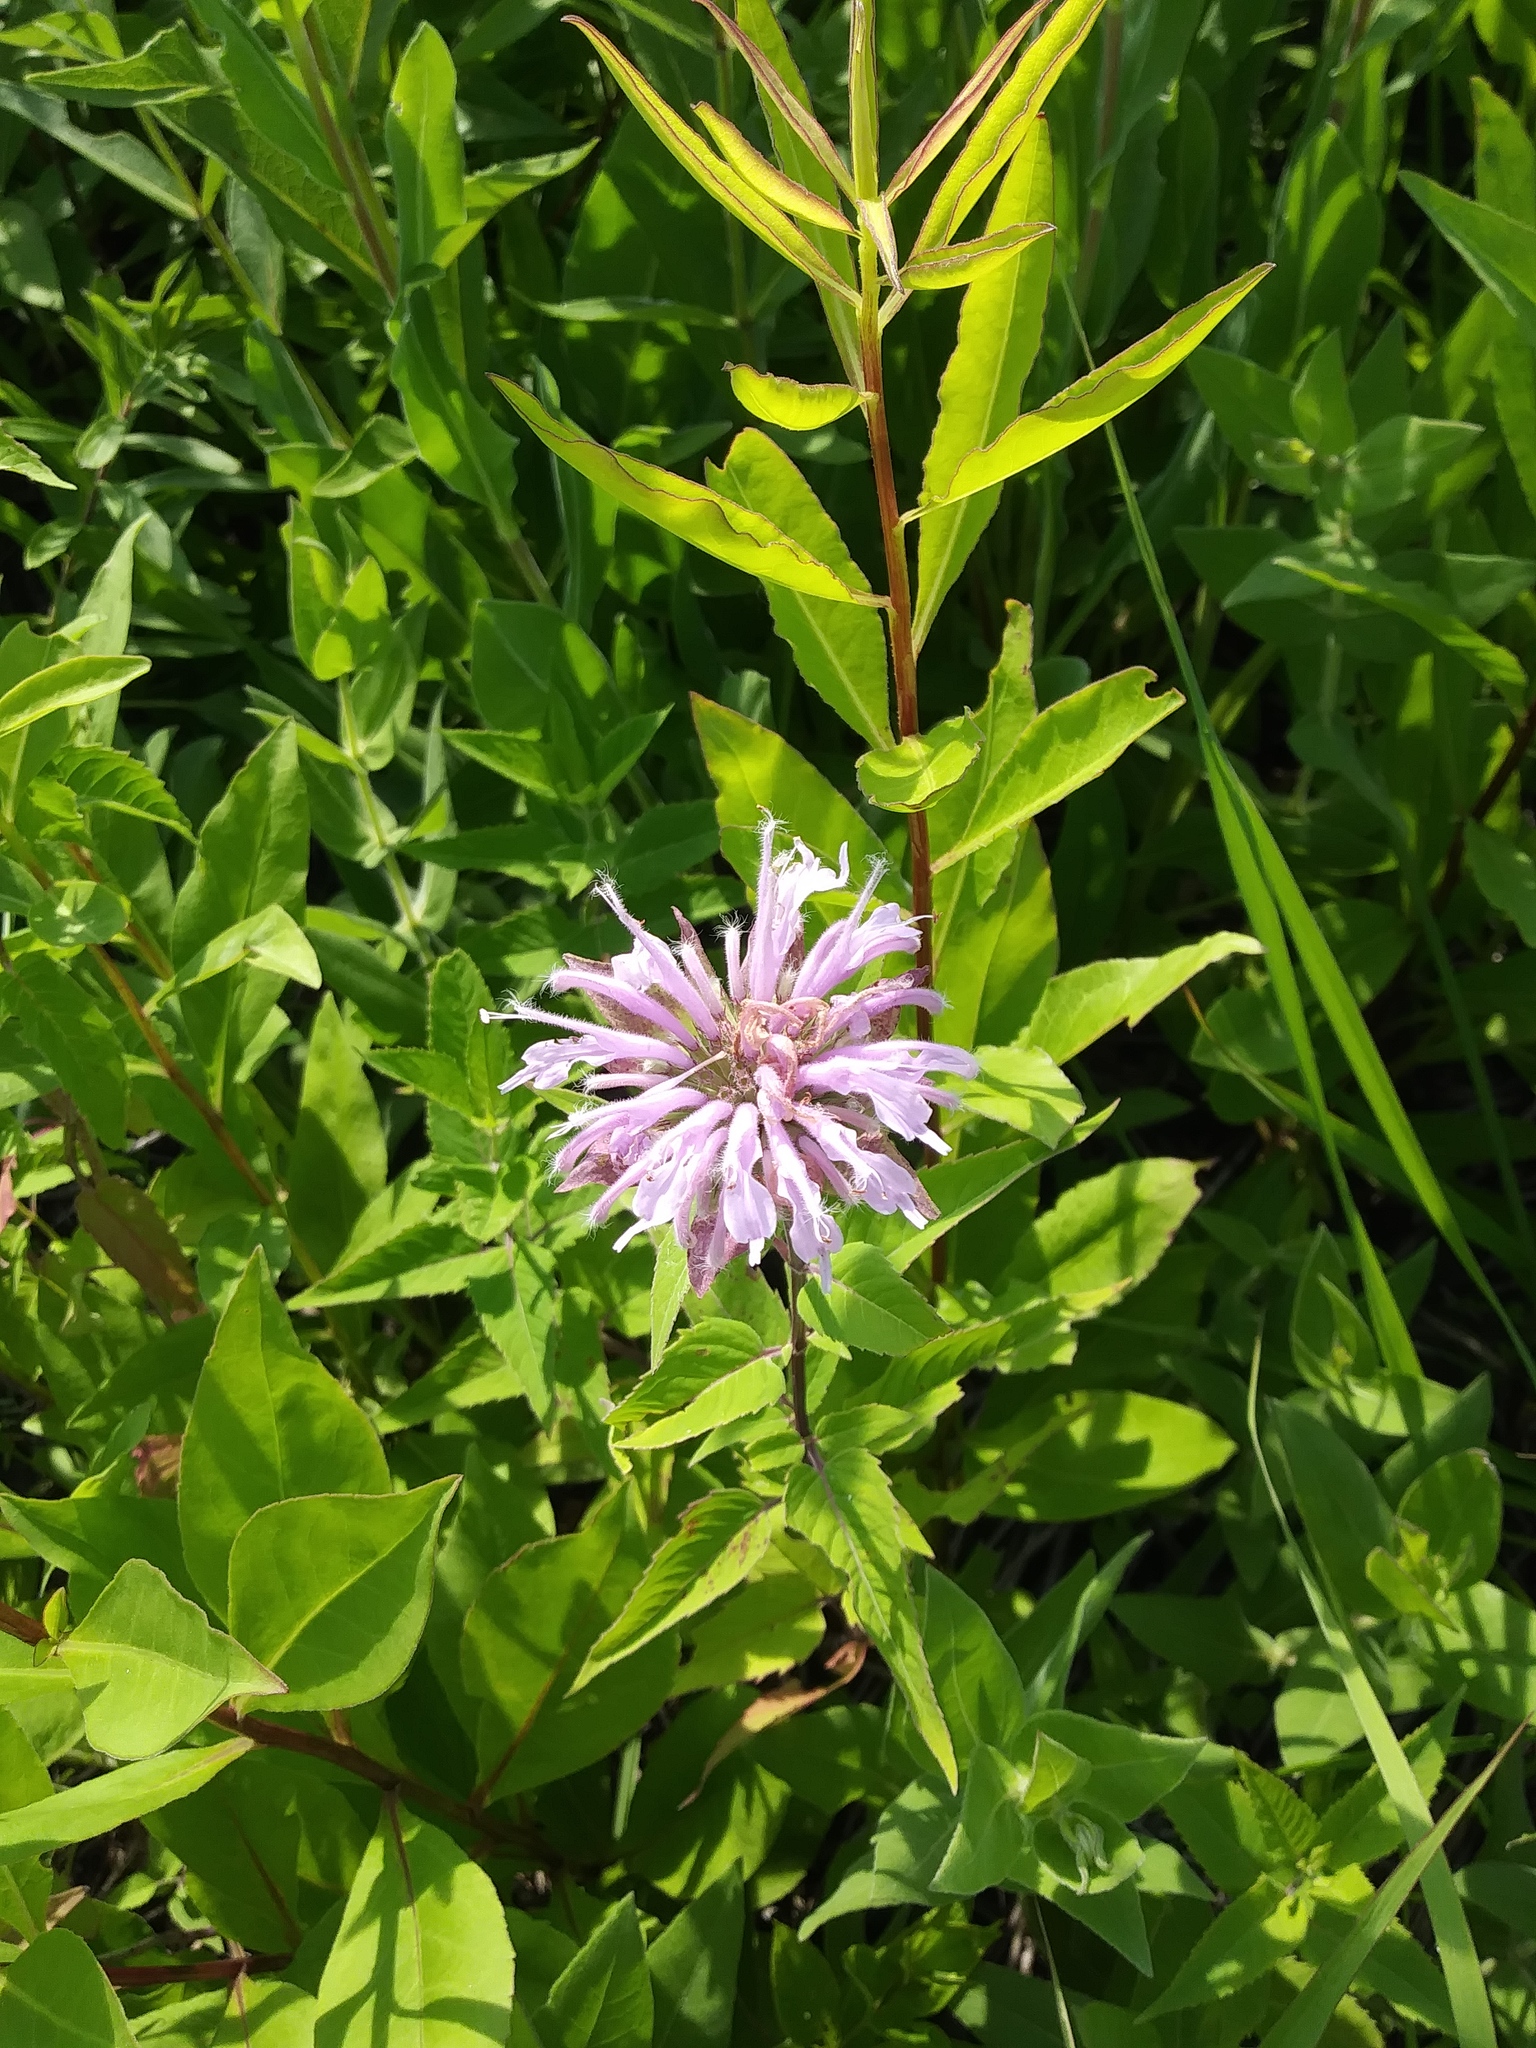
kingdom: Plantae
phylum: Tracheophyta
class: Magnoliopsida
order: Lamiales
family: Lamiaceae
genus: Monarda
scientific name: Monarda fistulosa
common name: Purple beebalm
